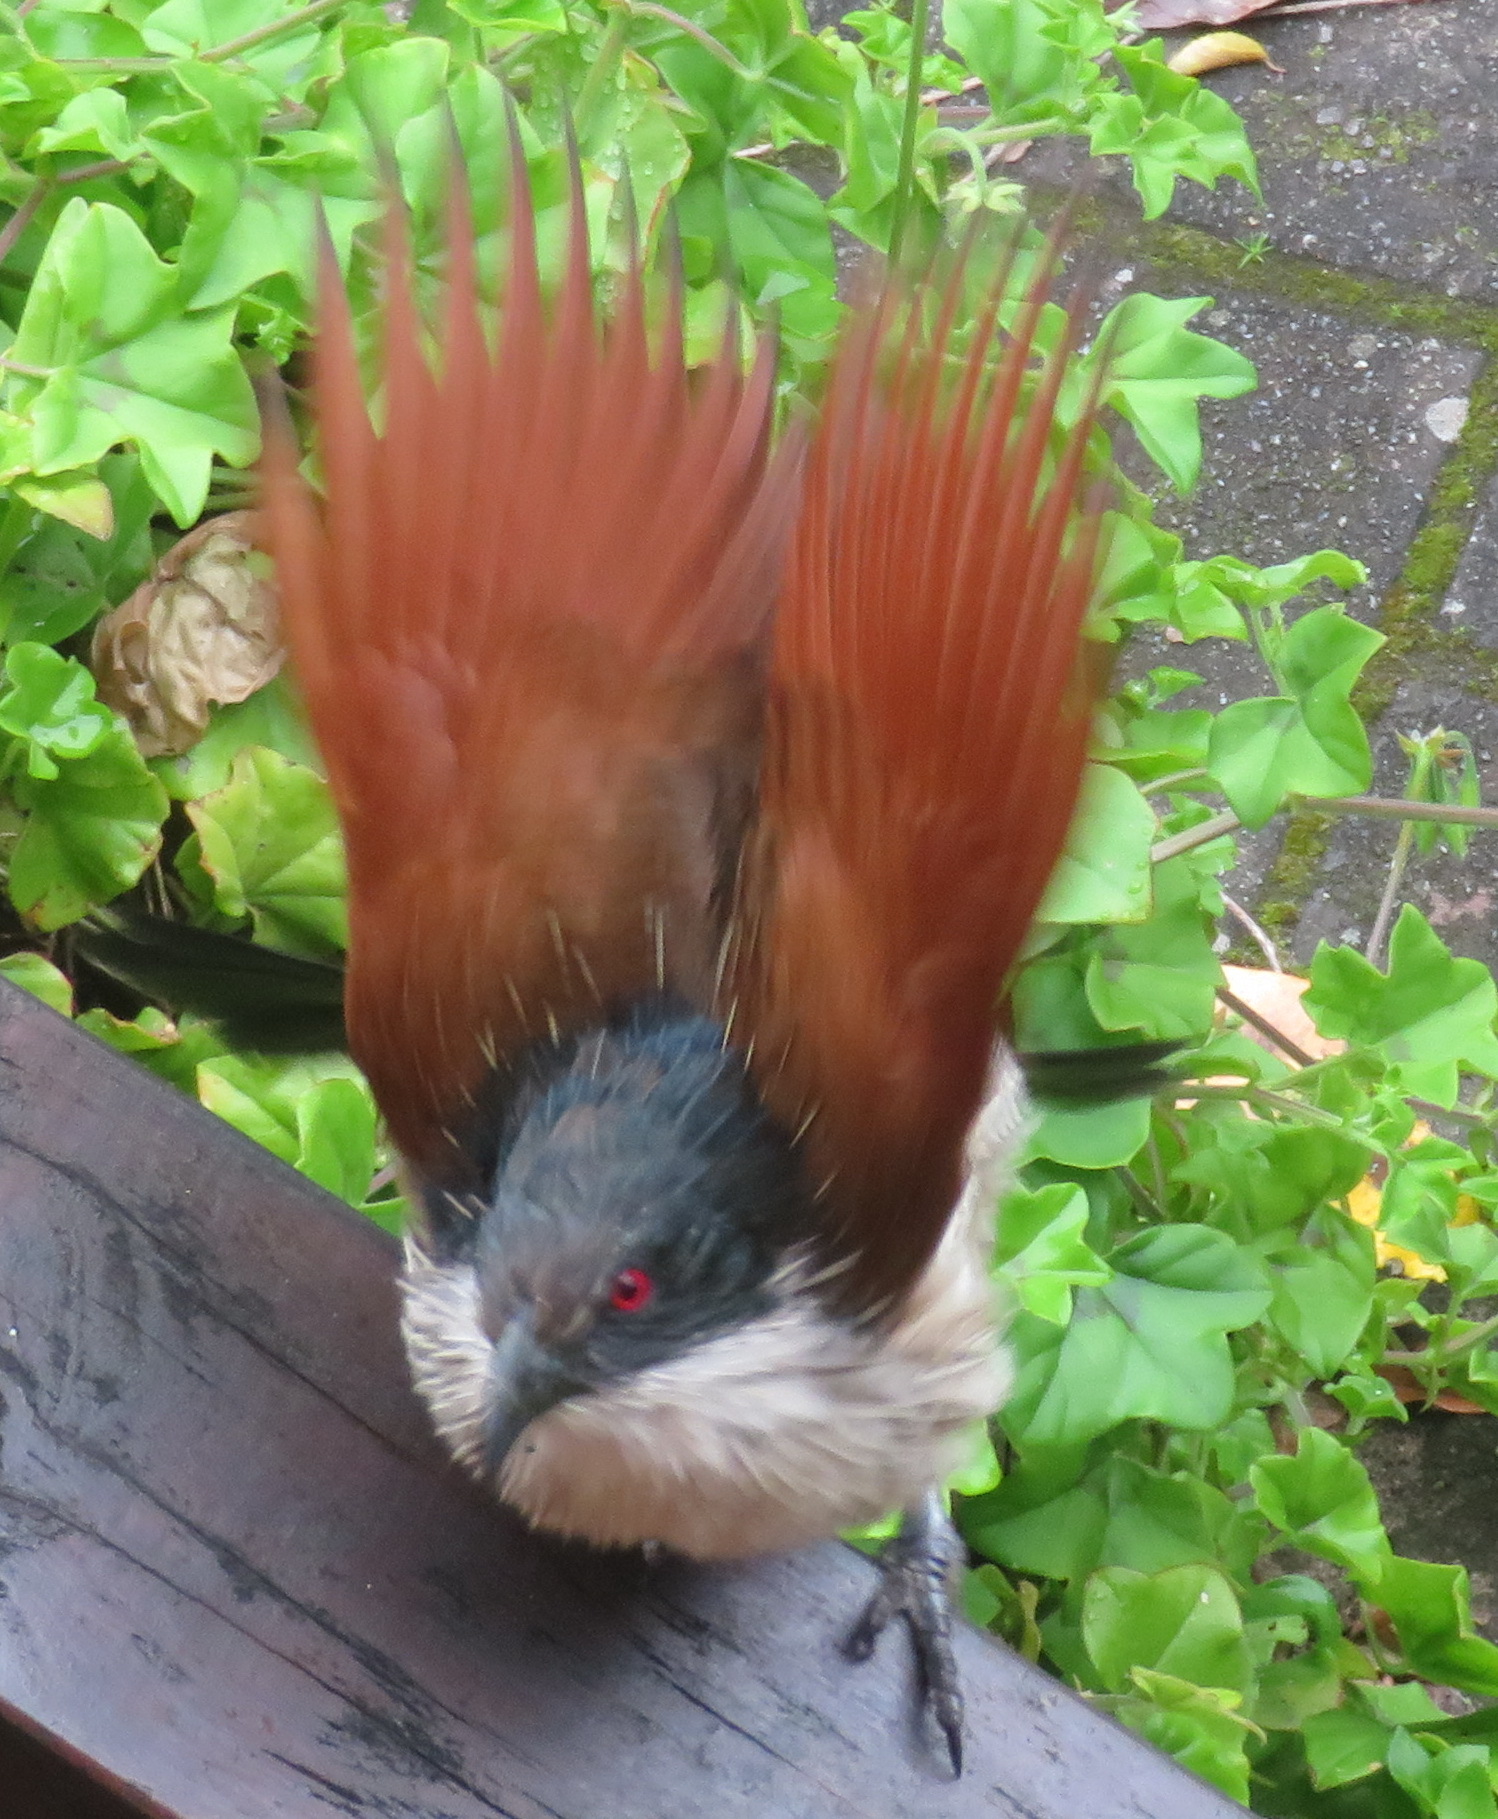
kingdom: Animalia
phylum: Chordata
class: Aves
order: Cuculiformes
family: Cuculidae
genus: Centropus
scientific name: Centropus superciliosus
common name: White-browed coucal
